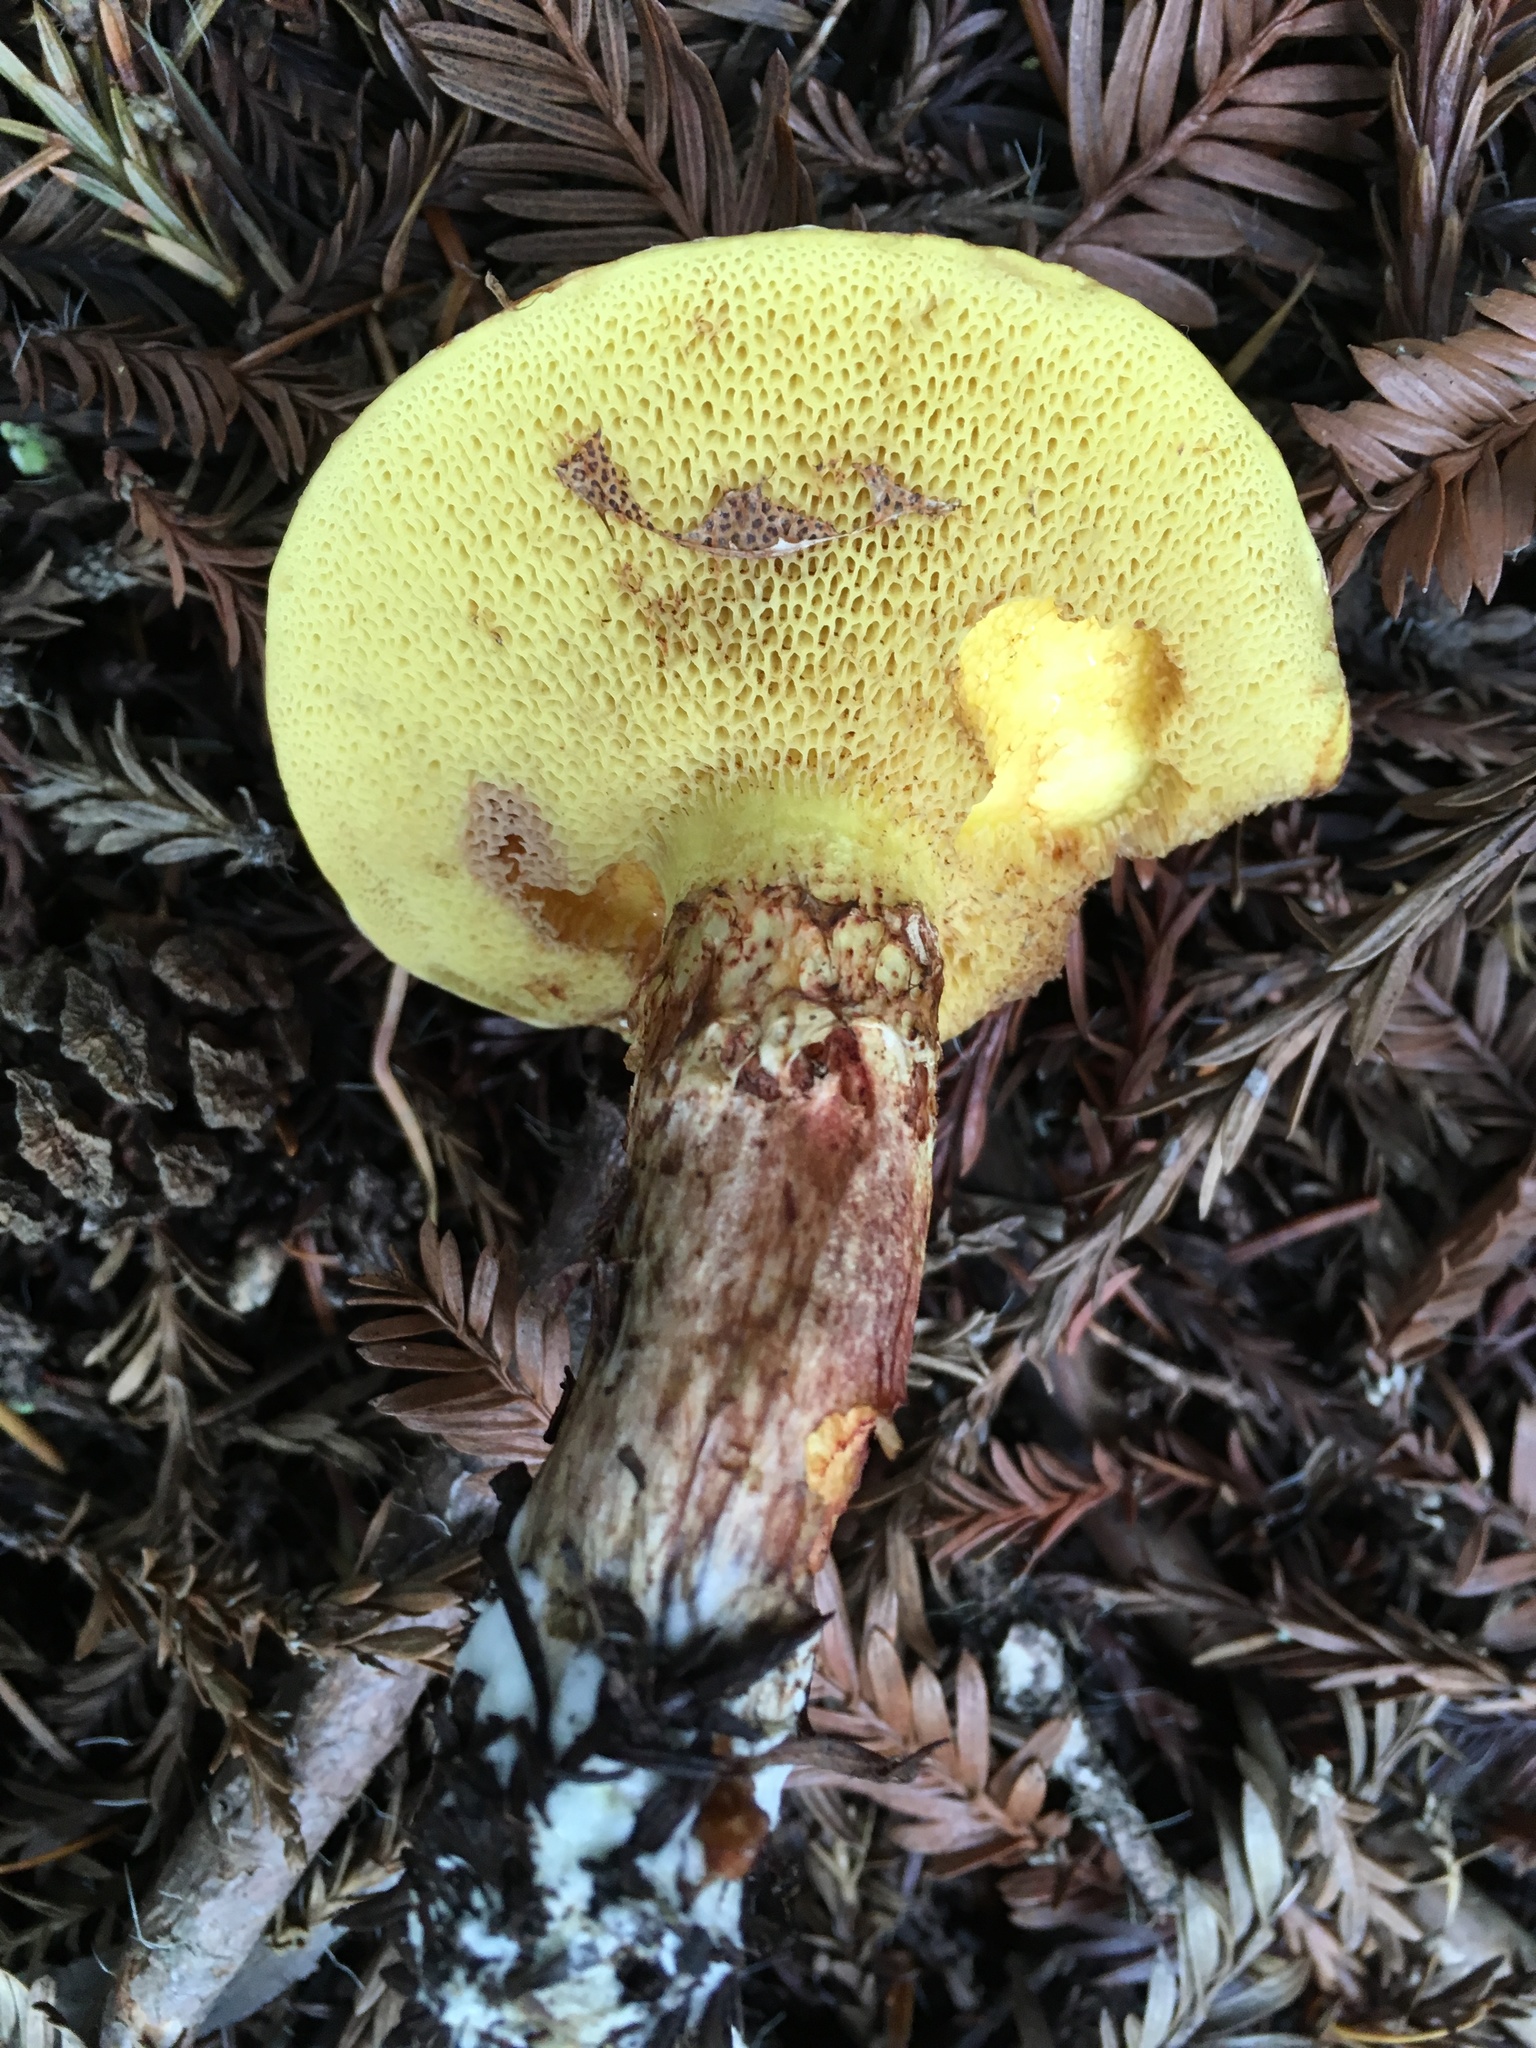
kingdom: Fungi
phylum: Basidiomycota
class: Agaricomycetes
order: Boletales
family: Suillaceae
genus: Suillus
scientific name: Suillus caerulescens
